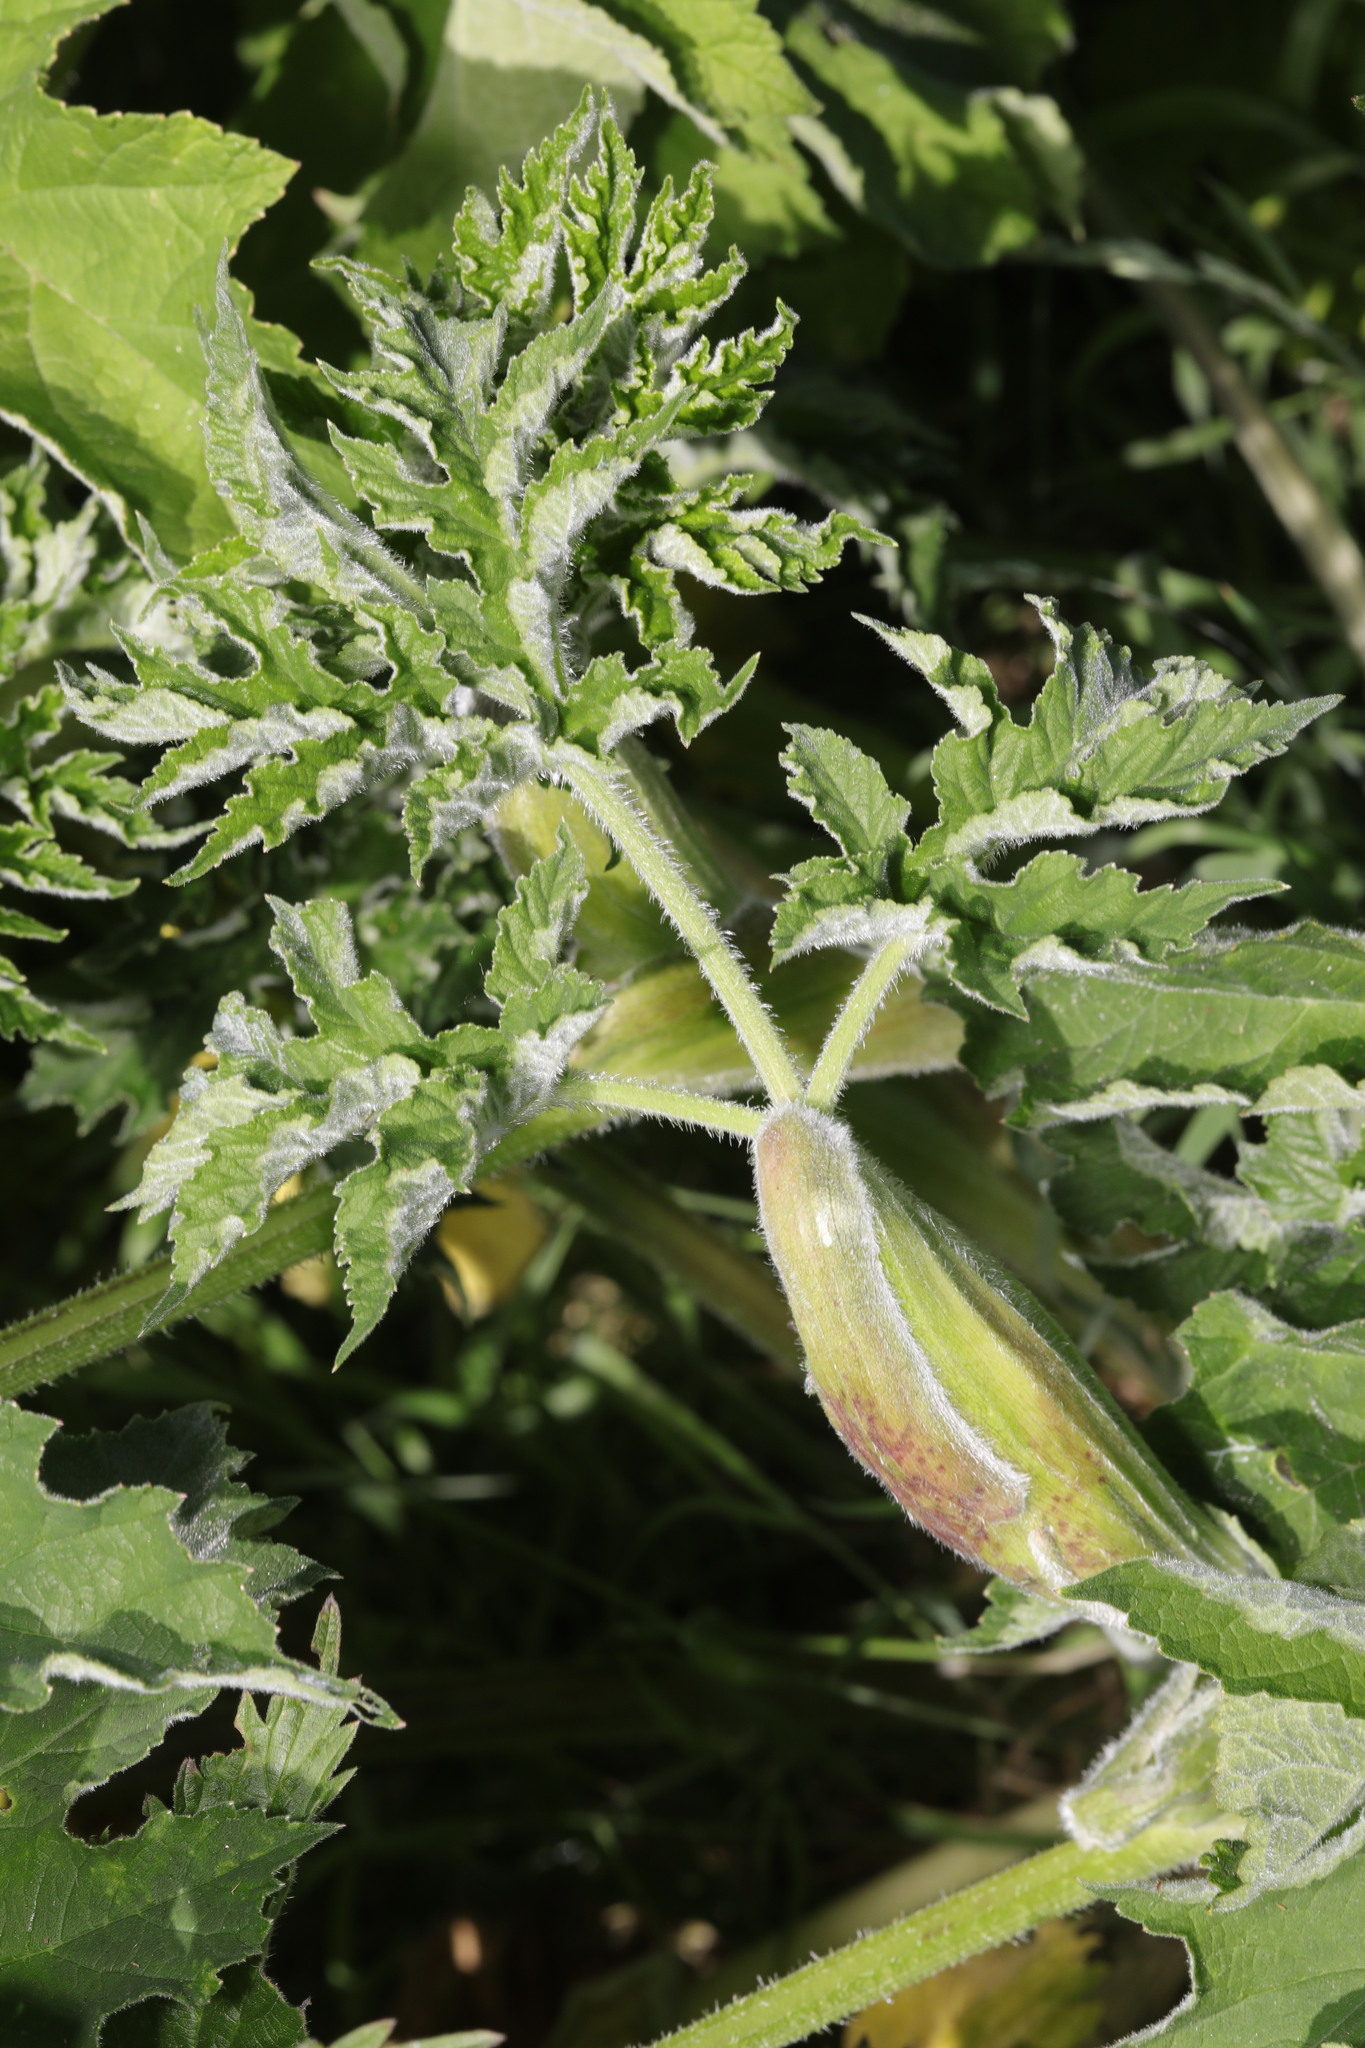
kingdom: Plantae
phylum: Tracheophyta
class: Magnoliopsida
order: Apiales
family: Apiaceae
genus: Heracleum
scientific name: Heracleum sphondylium
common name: Hogweed
